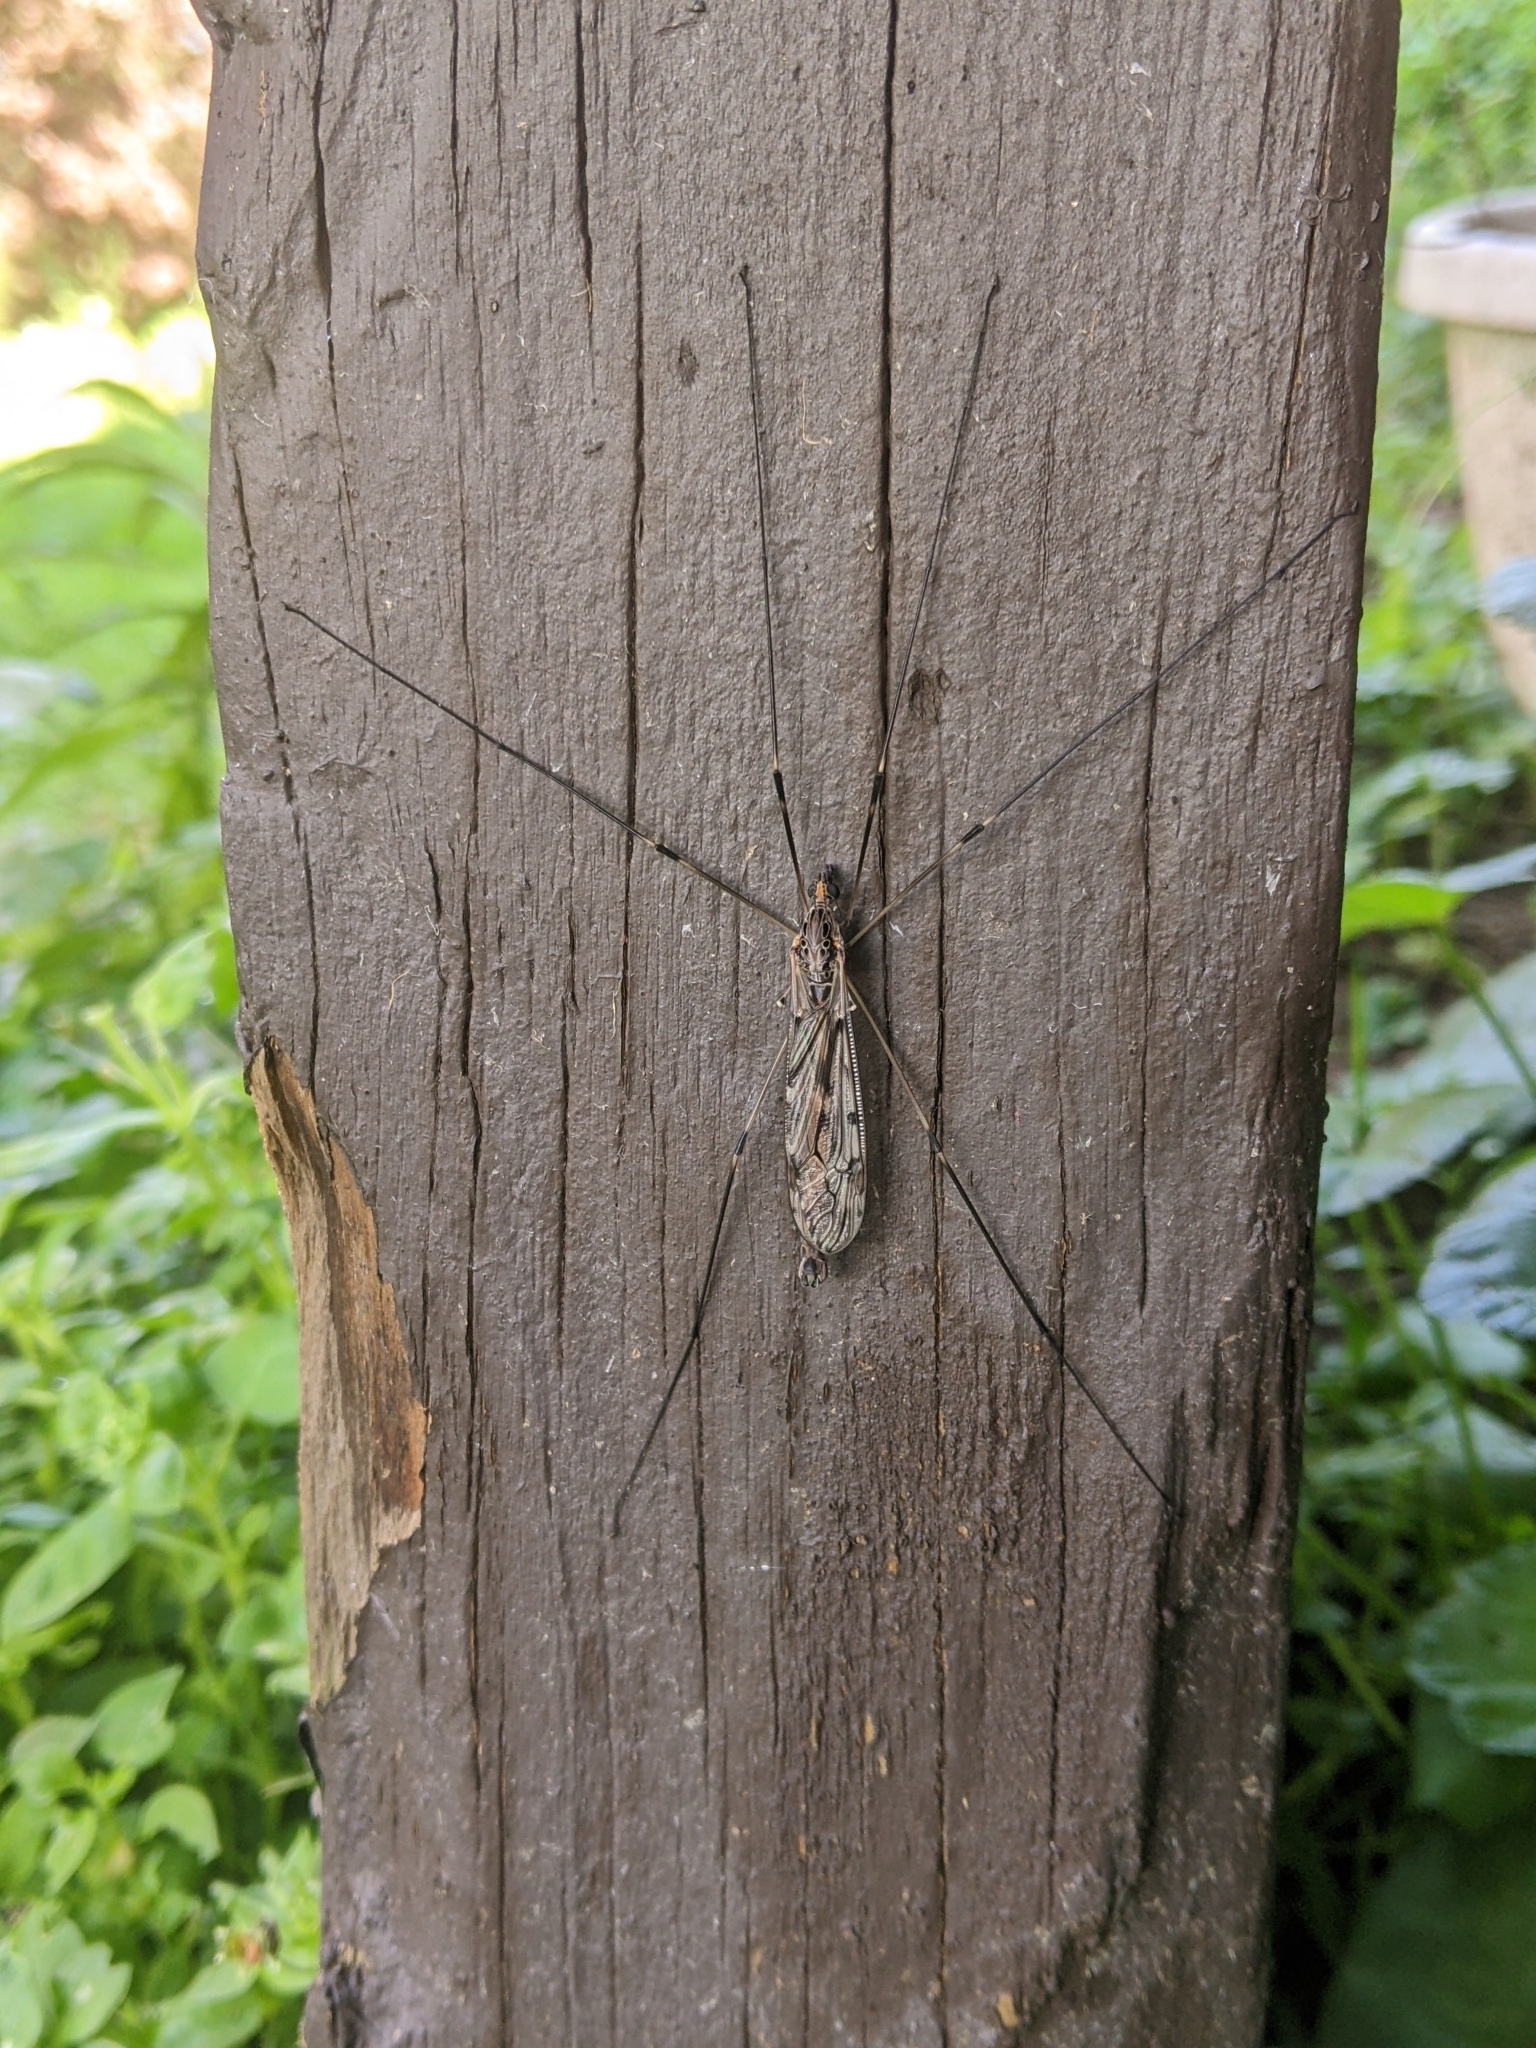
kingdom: Animalia
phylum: Arthropoda
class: Insecta
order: Diptera
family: Tipulidae
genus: Tipula
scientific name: Tipula abdominalis
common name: Giant crane fly
